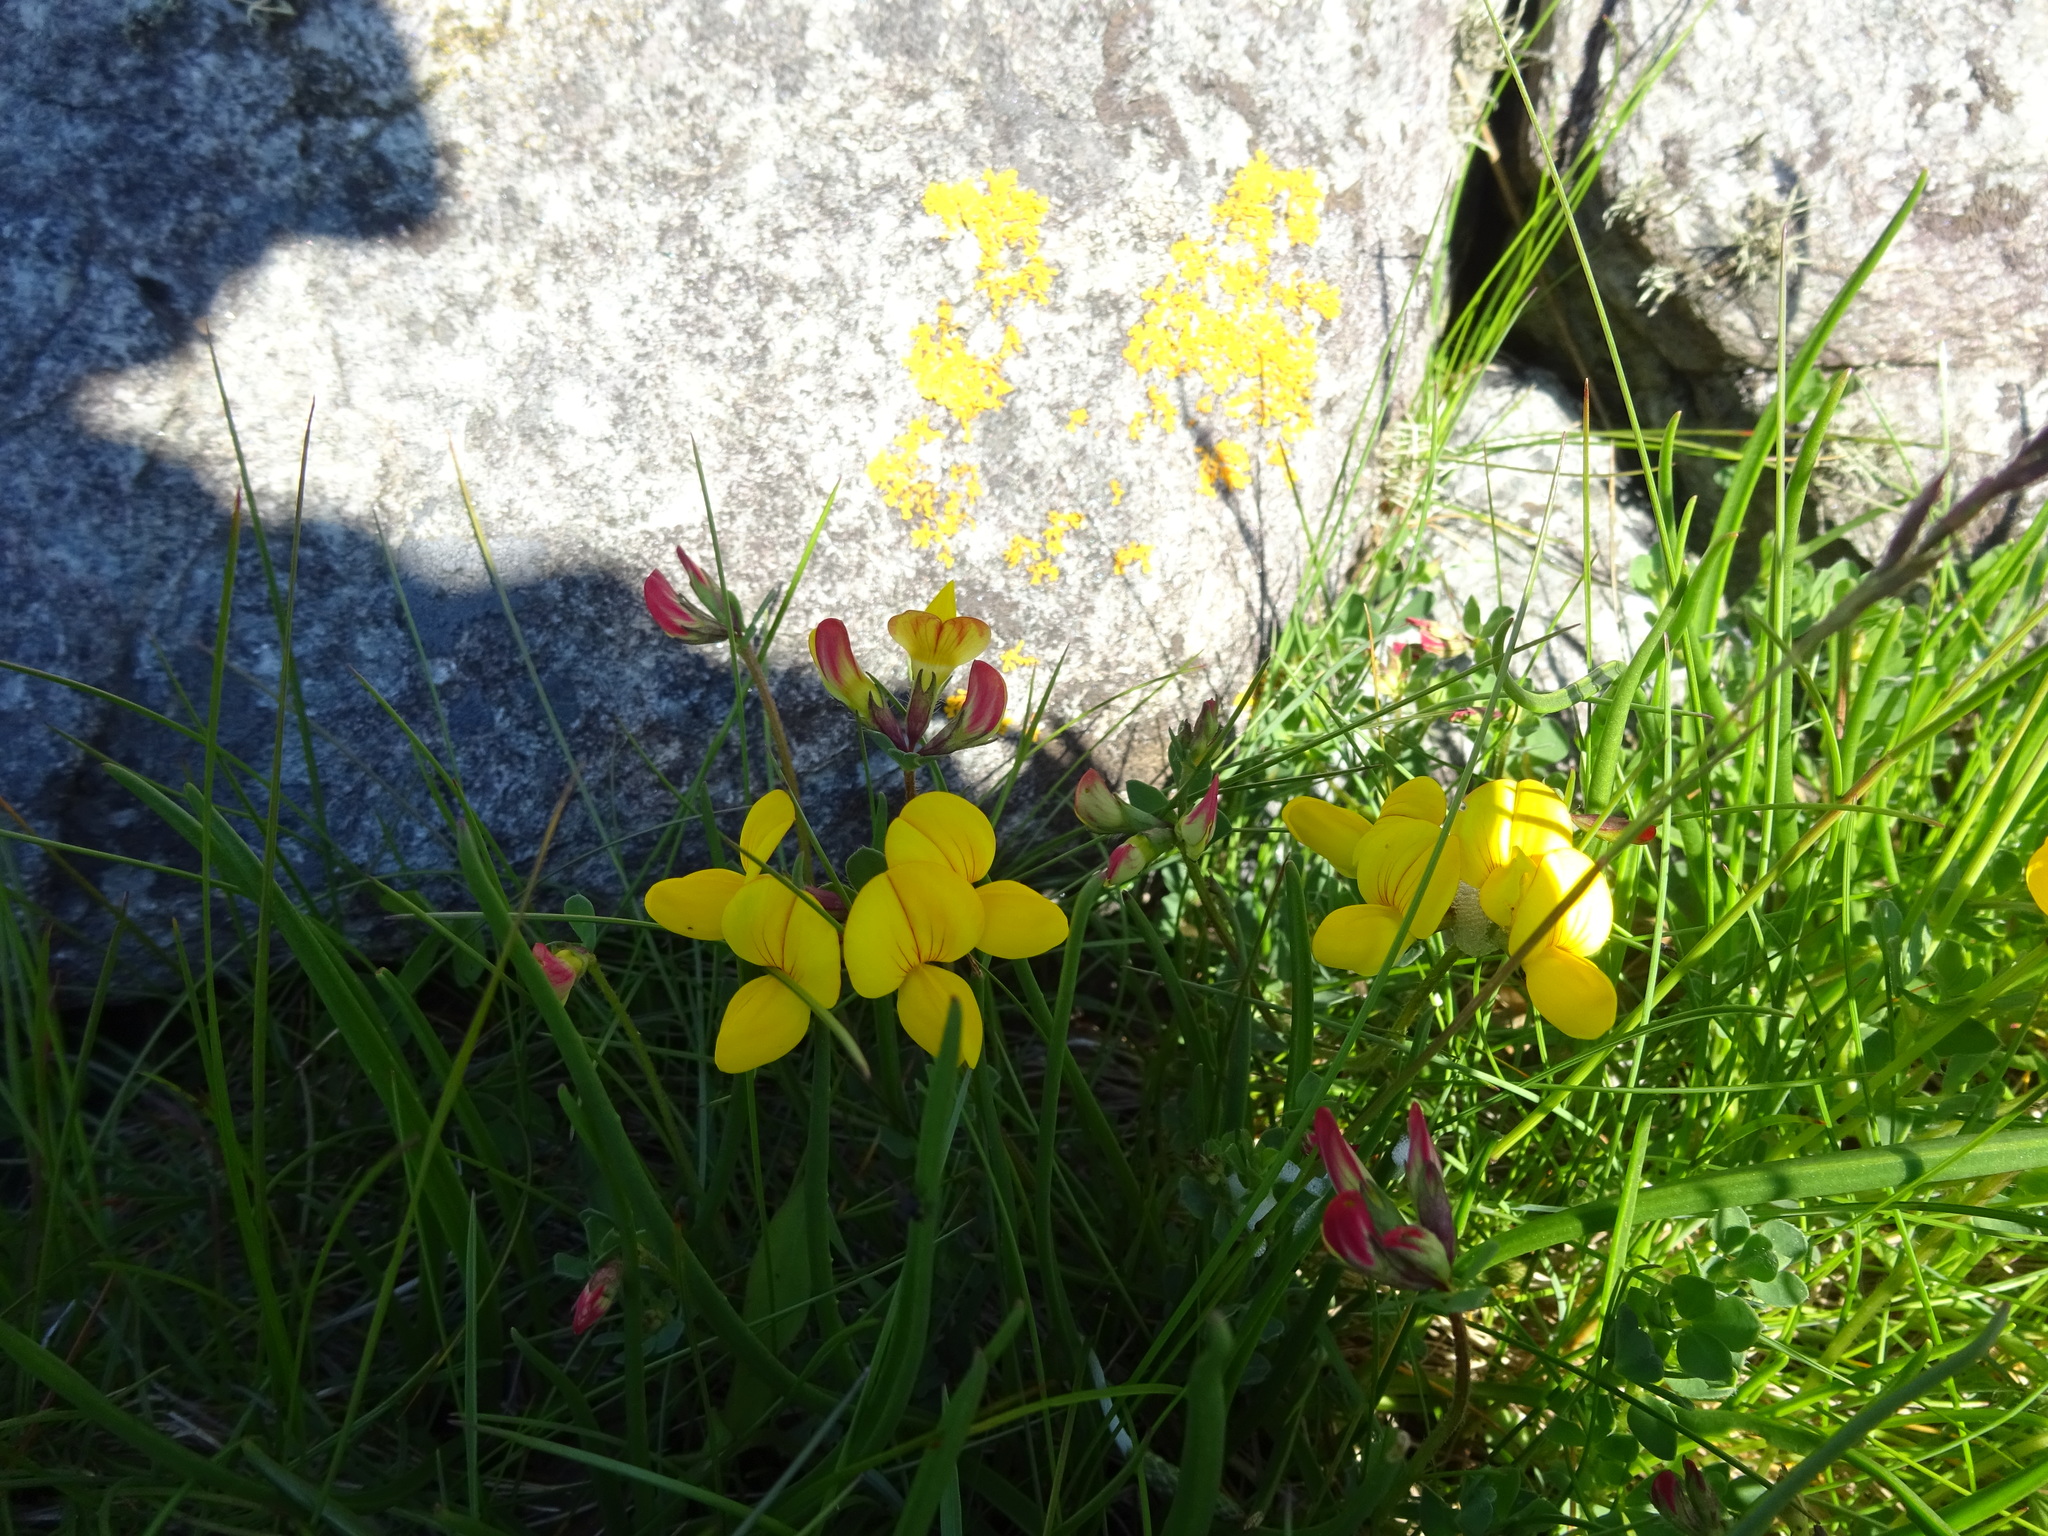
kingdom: Plantae
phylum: Tracheophyta
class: Magnoliopsida
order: Fabales
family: Fabaceae
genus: Lotus
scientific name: Lotus corniculatus
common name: Common bird's-foot-trefoil
